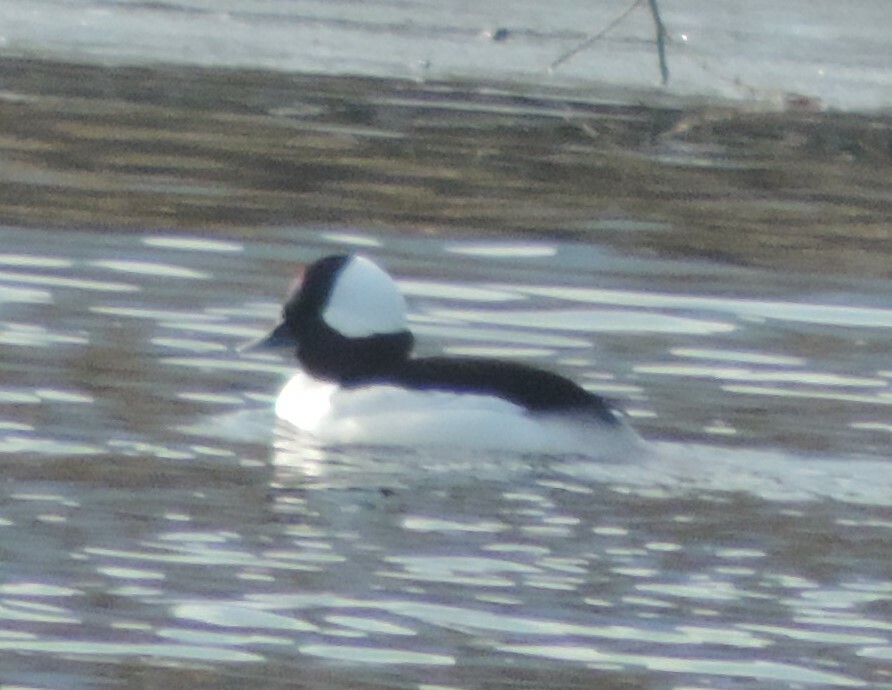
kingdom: Animalia
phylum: Chordata
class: Aves
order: Anseriformes
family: Anatidae
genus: Bucephala
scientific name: Bucephala albeola
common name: Bufflehead
